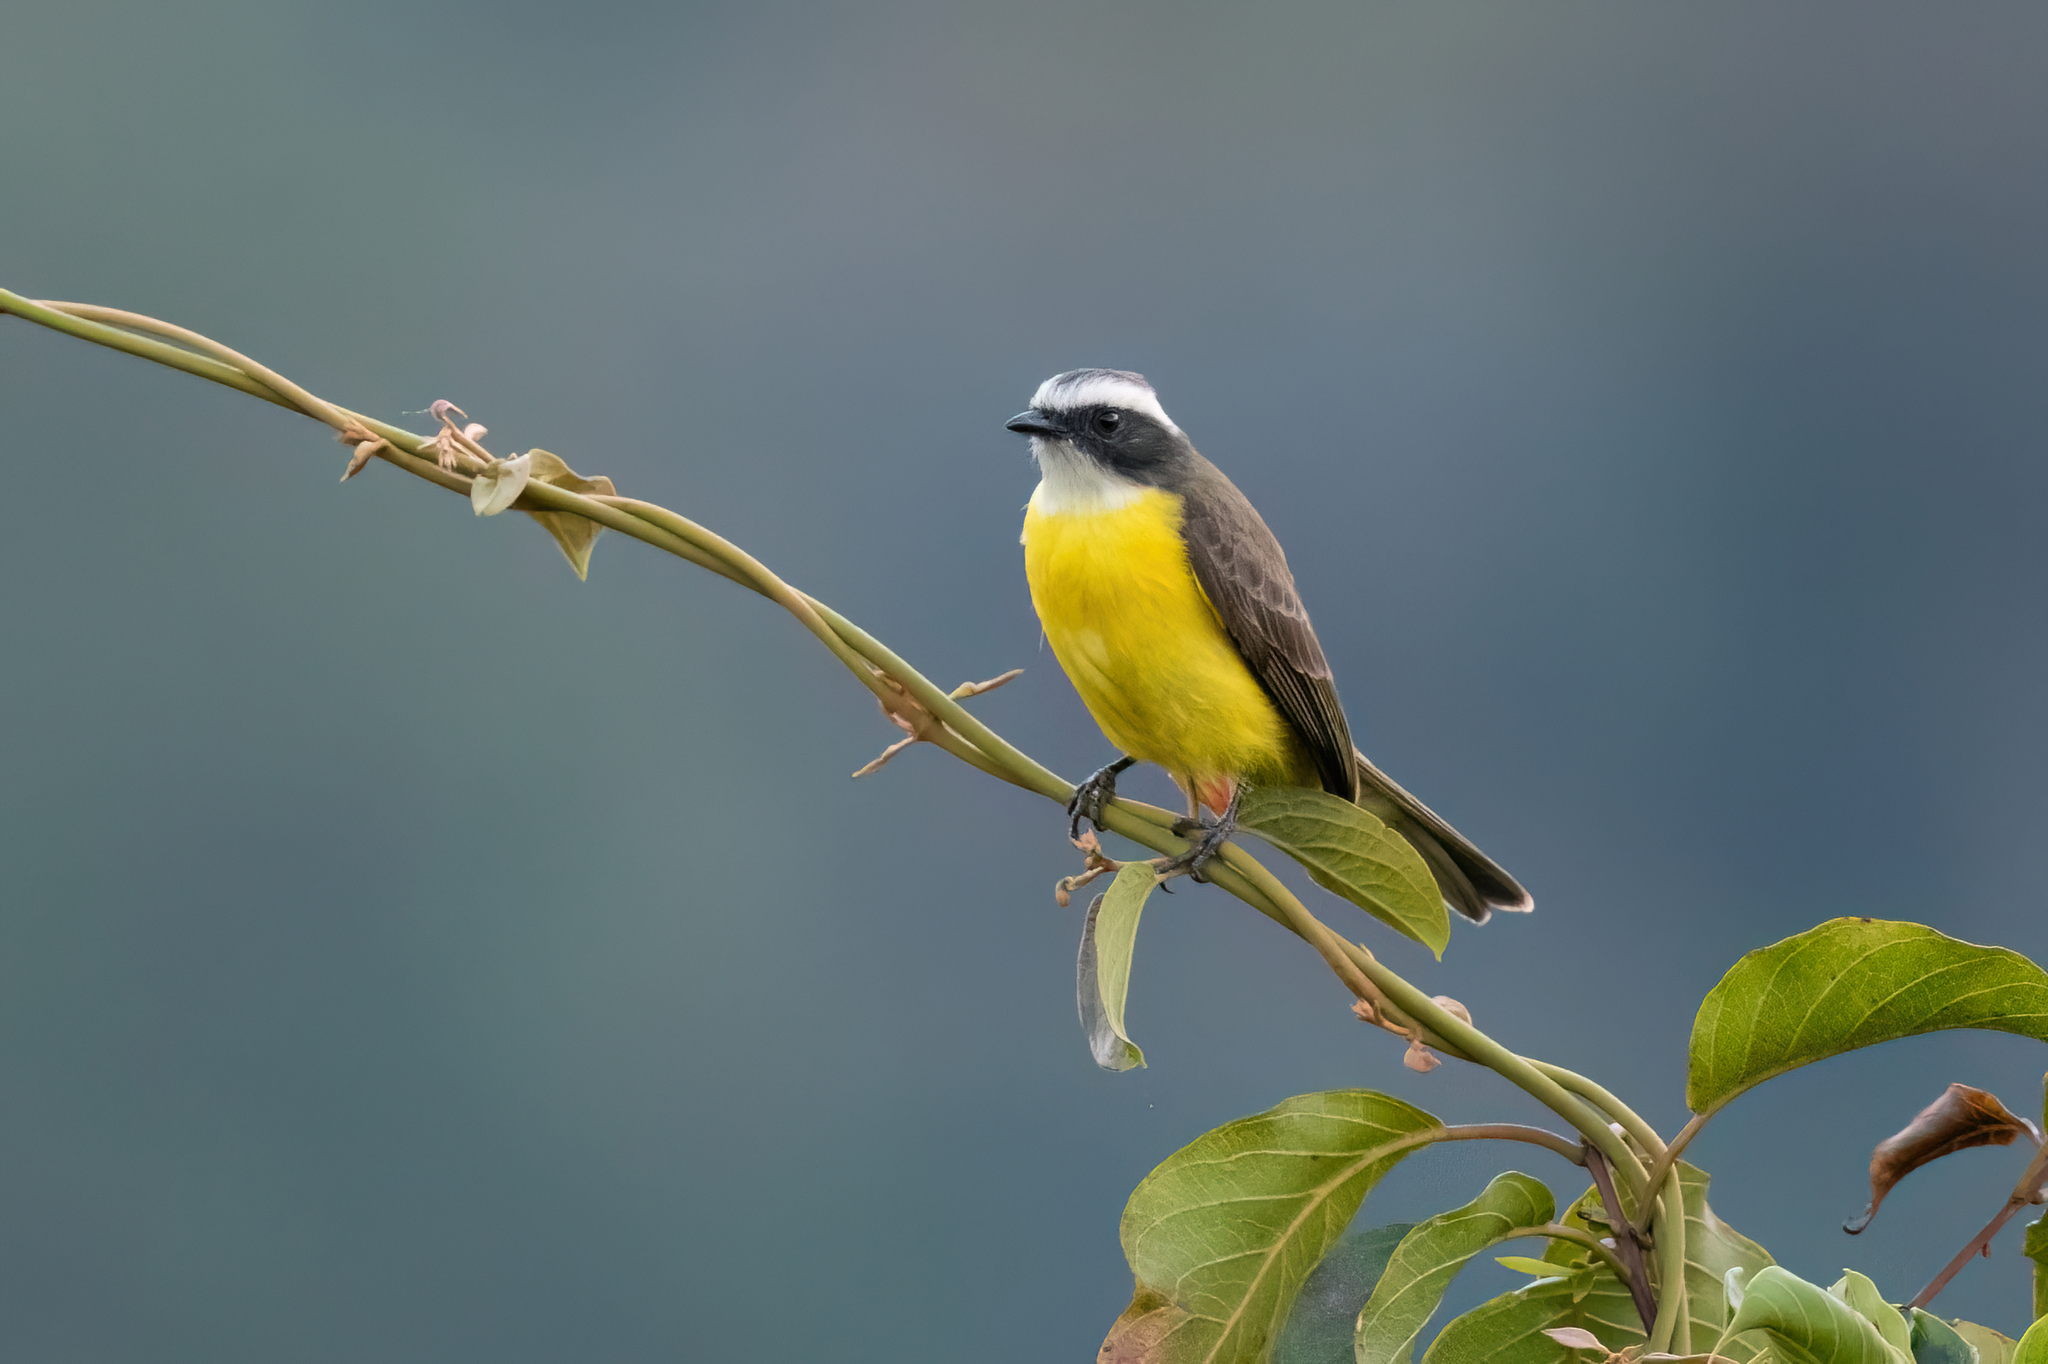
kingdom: Animalia
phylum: Chordata
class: Aves
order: Passeriformes
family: Tyrannidae
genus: Myiozetetes
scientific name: Myiozetetes similis
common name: Social flycatcher
